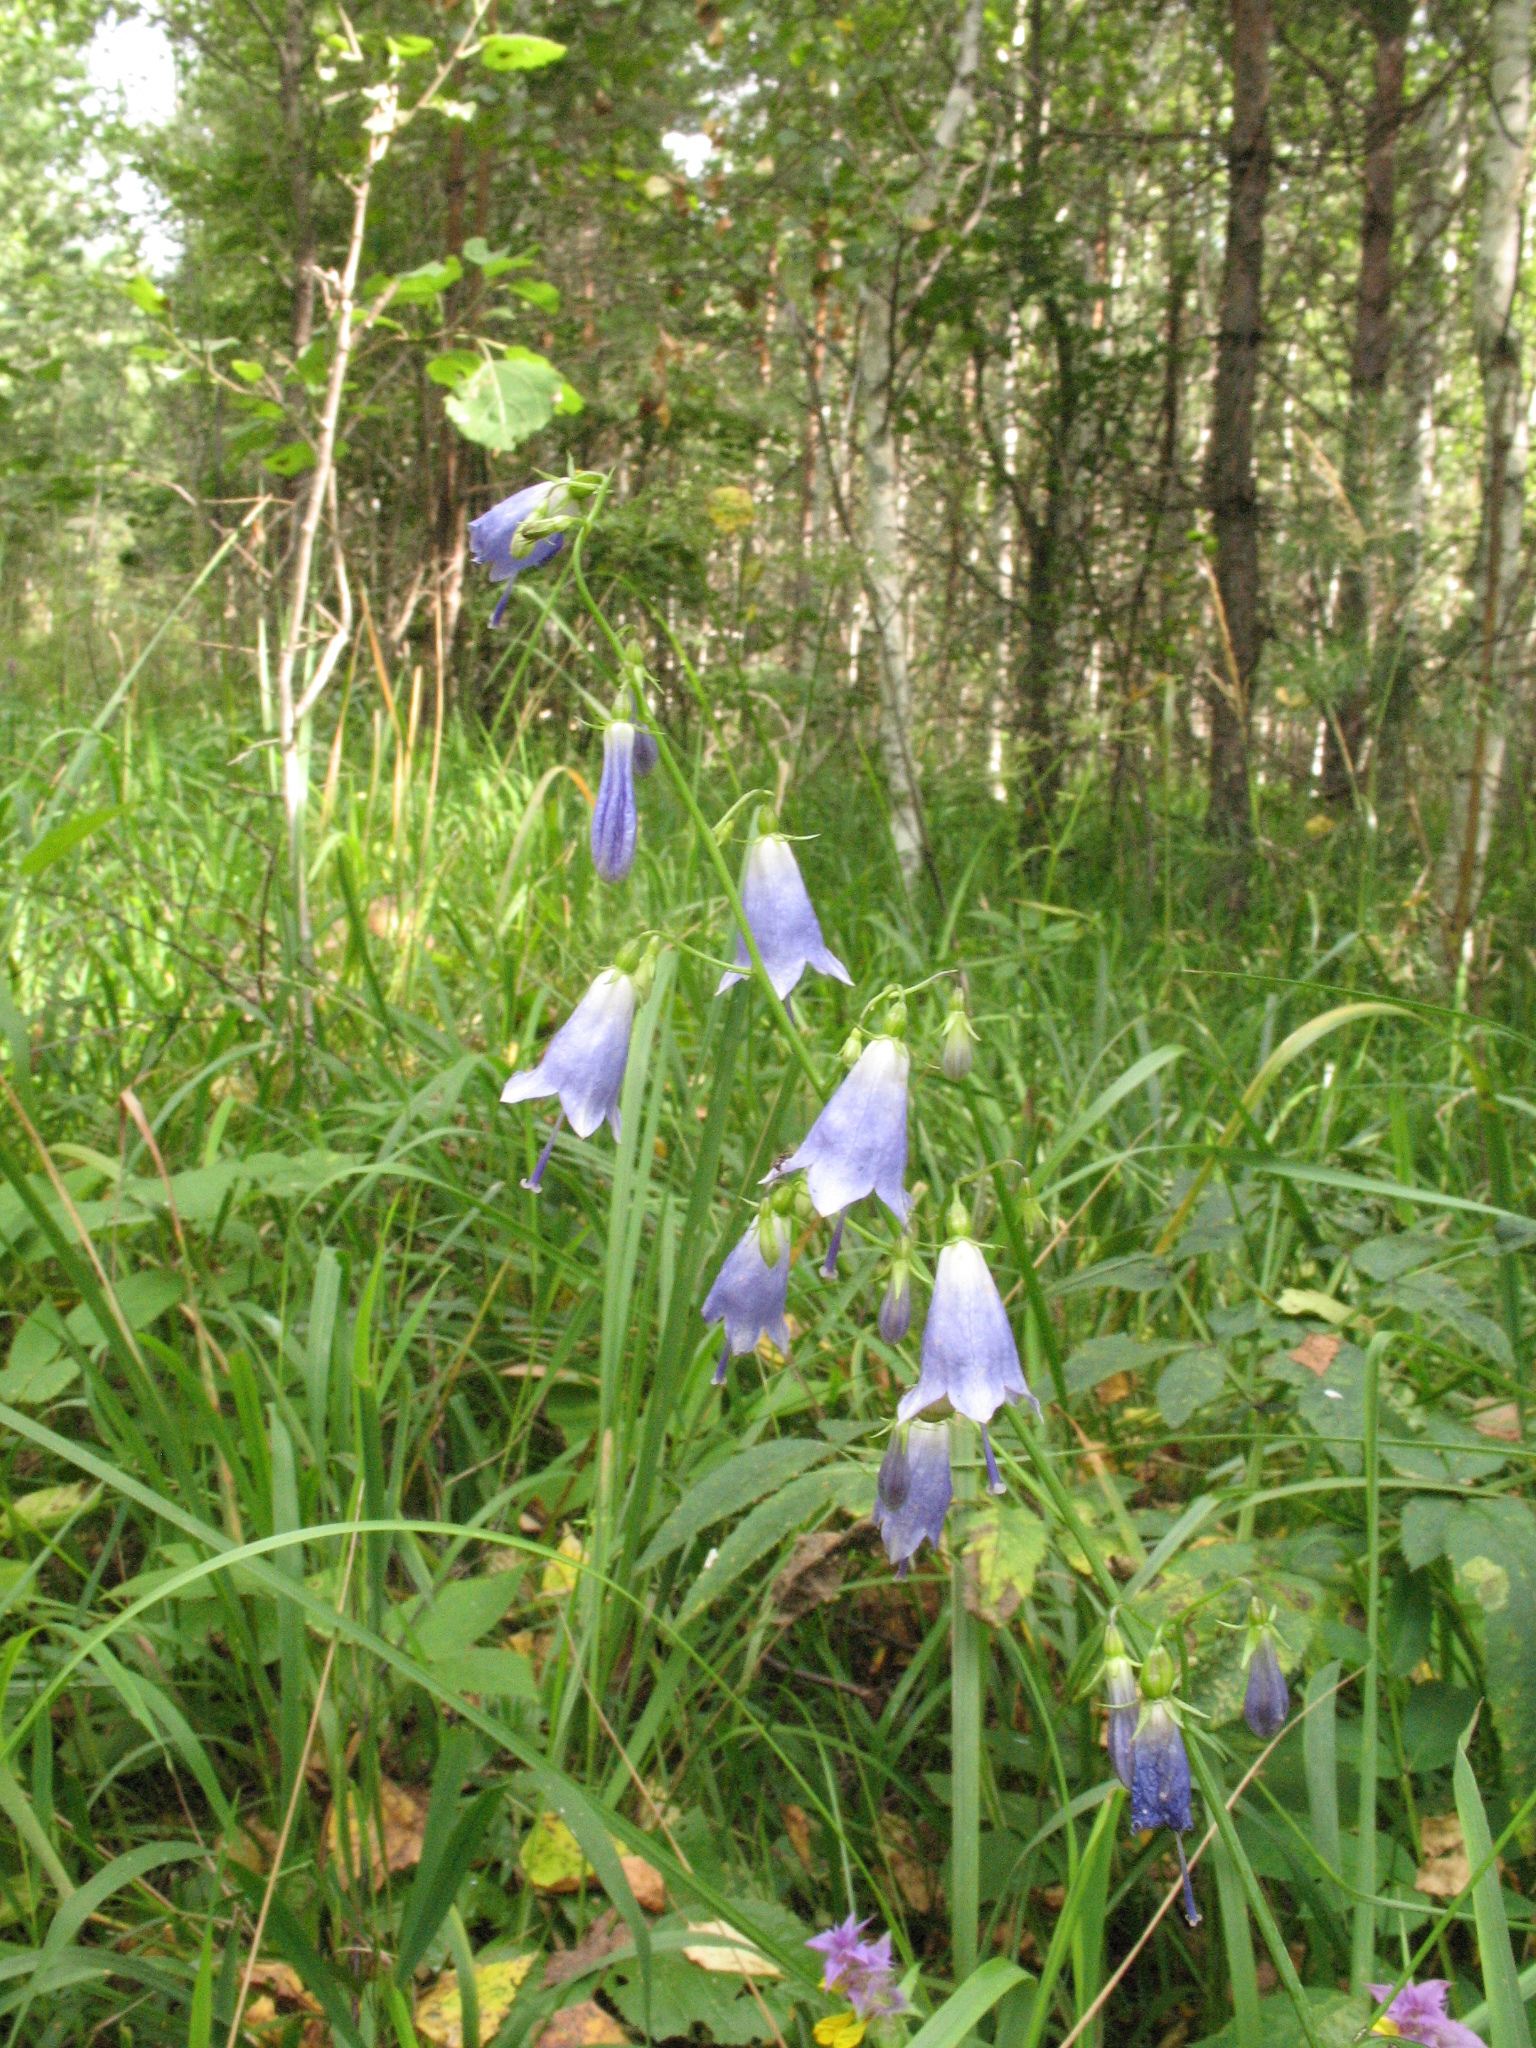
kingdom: Plantae
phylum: Tracheophyta
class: Magnoliopsida
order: Asterales
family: Campanulaceae
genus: Adenophora
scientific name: Adenophora liliifolia
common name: Lilyleaf ladybells
